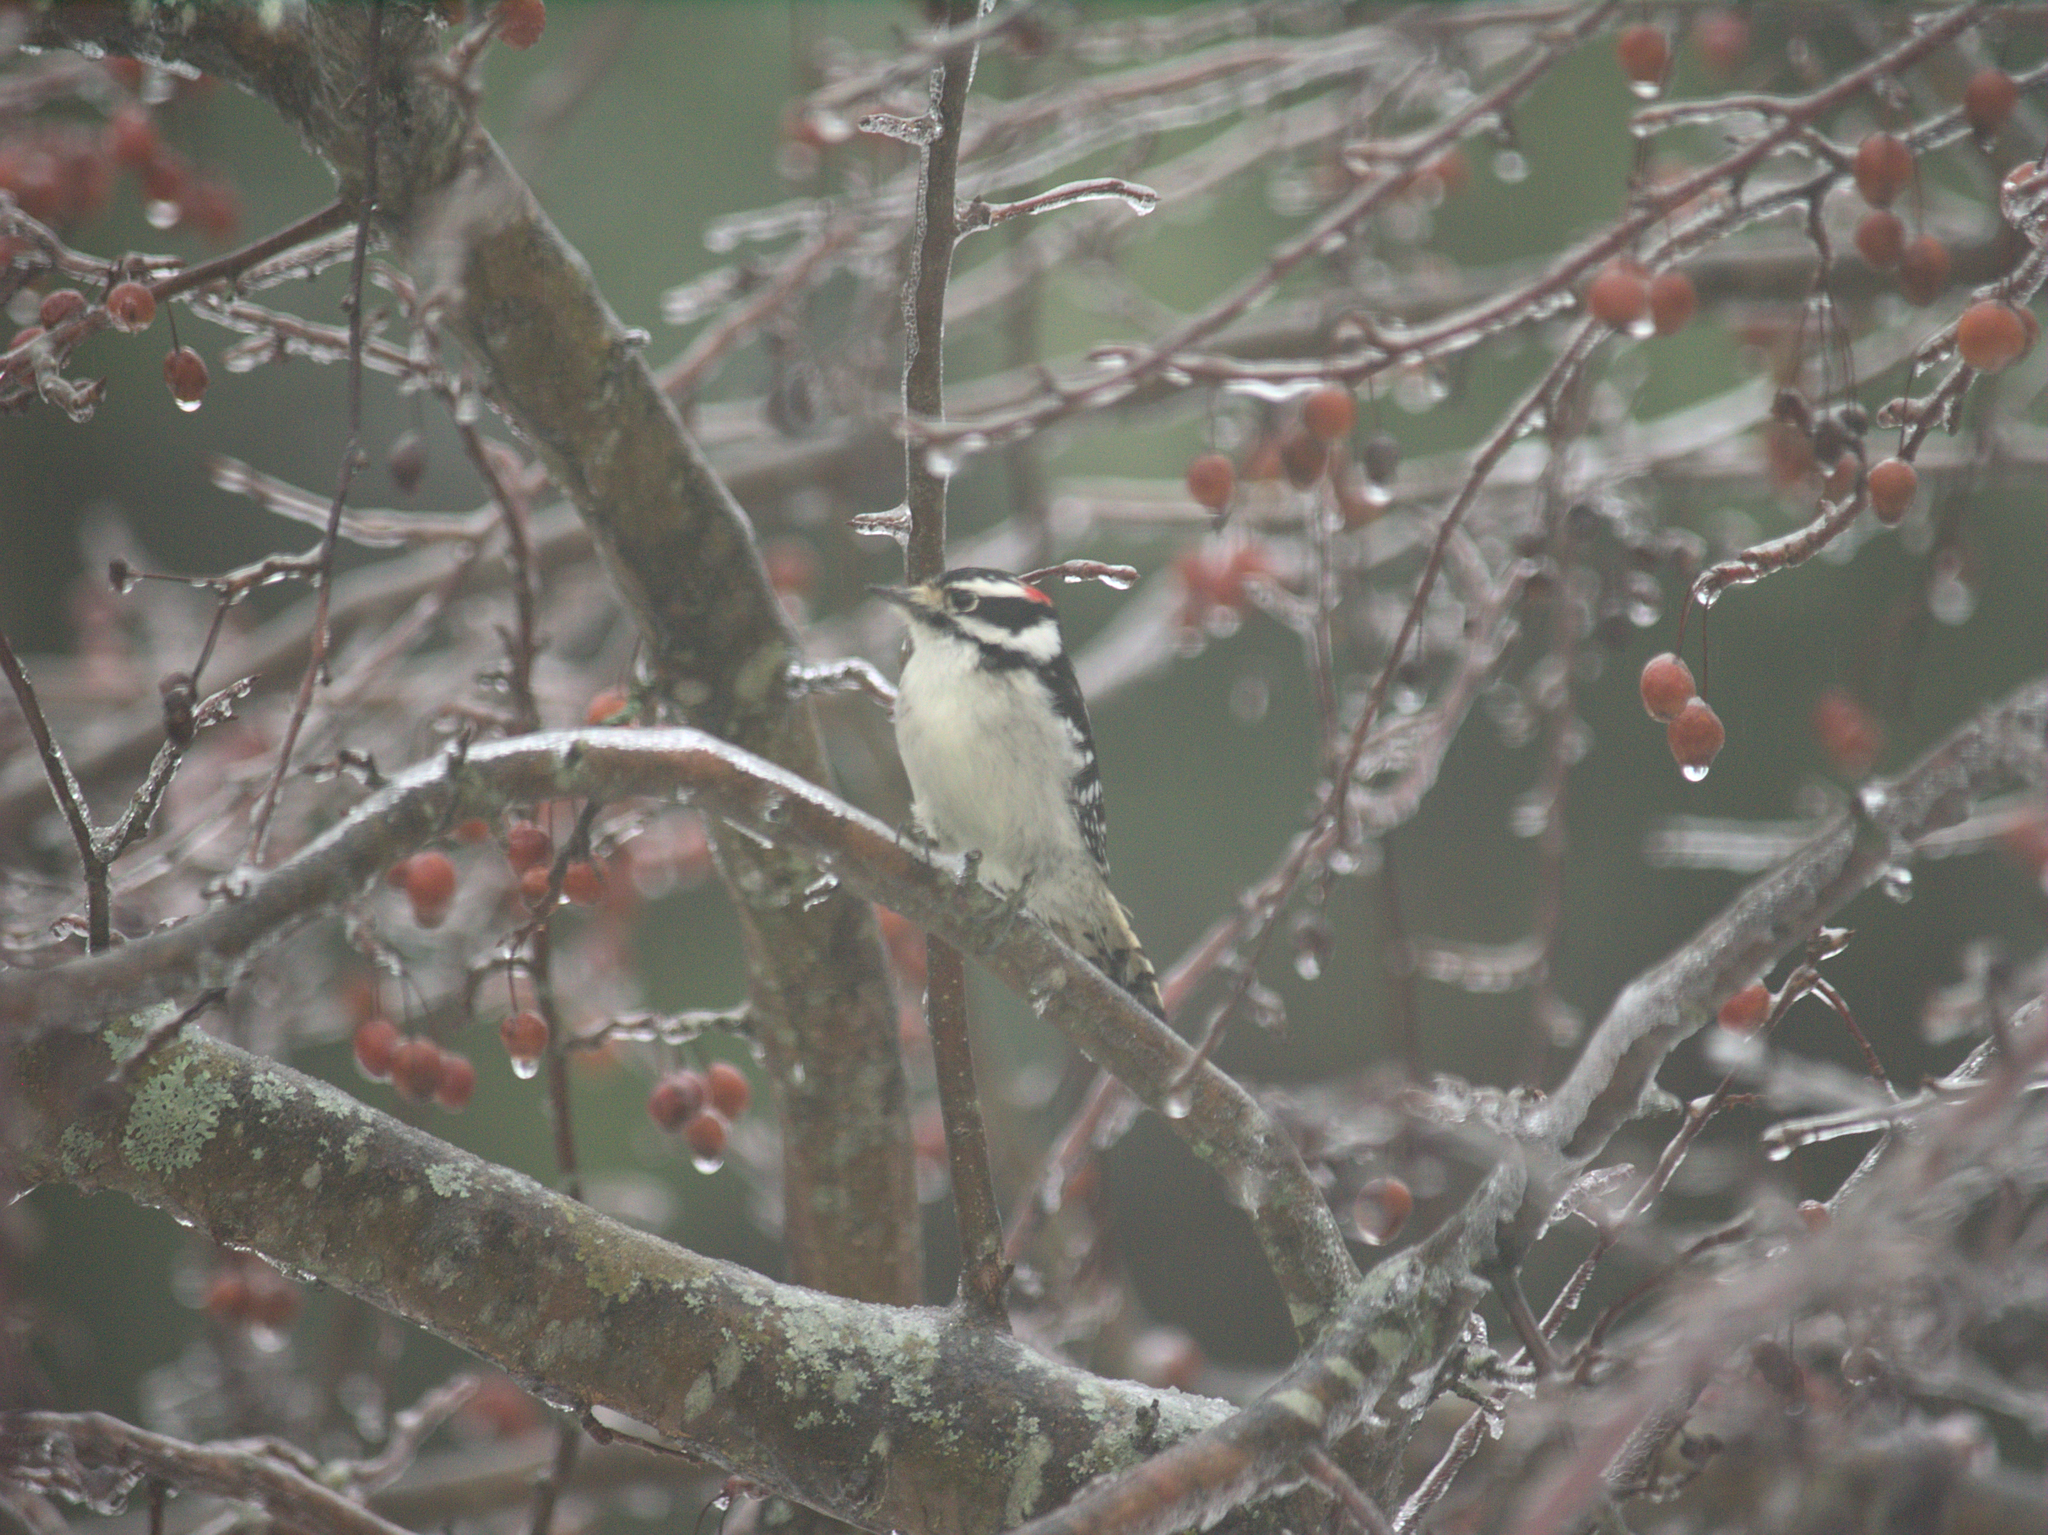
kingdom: Animalia
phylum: Chordata
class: Aves
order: Piciformes
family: Picidae
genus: Dryobates
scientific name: Dryobates pubescens
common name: Downy woodpecker
